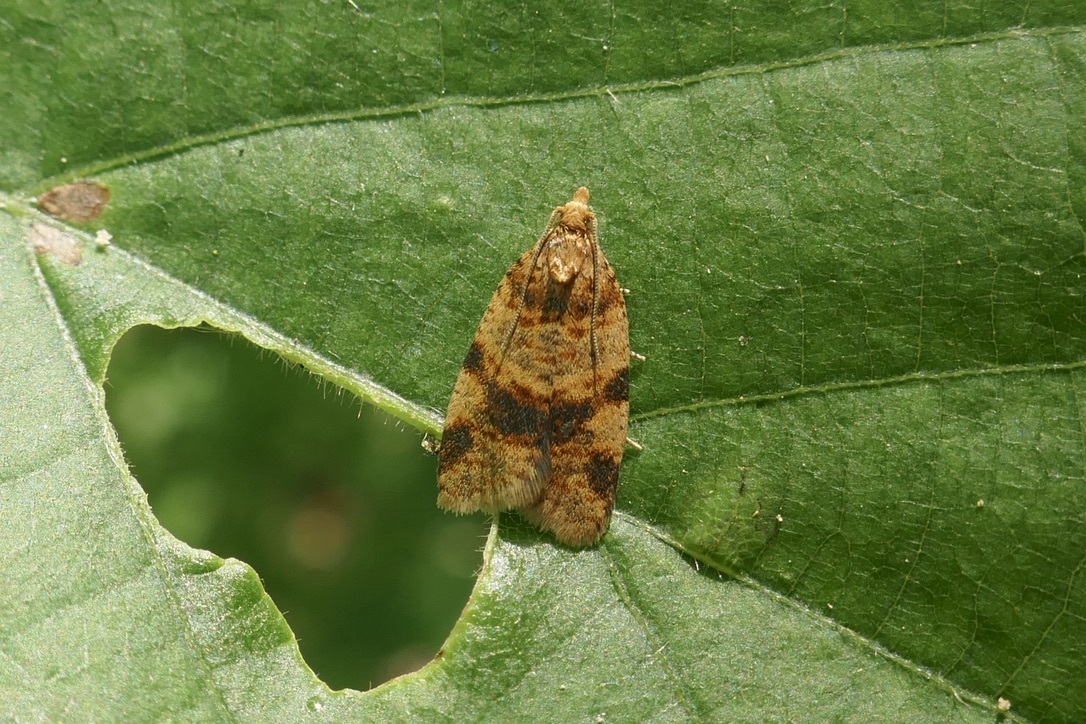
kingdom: Animalia
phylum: Arthropoda
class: Insecta
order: Lepidoptera
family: Tortricidae
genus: Epagoge
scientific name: Epagoge grotiana
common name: Brown-barred twist
